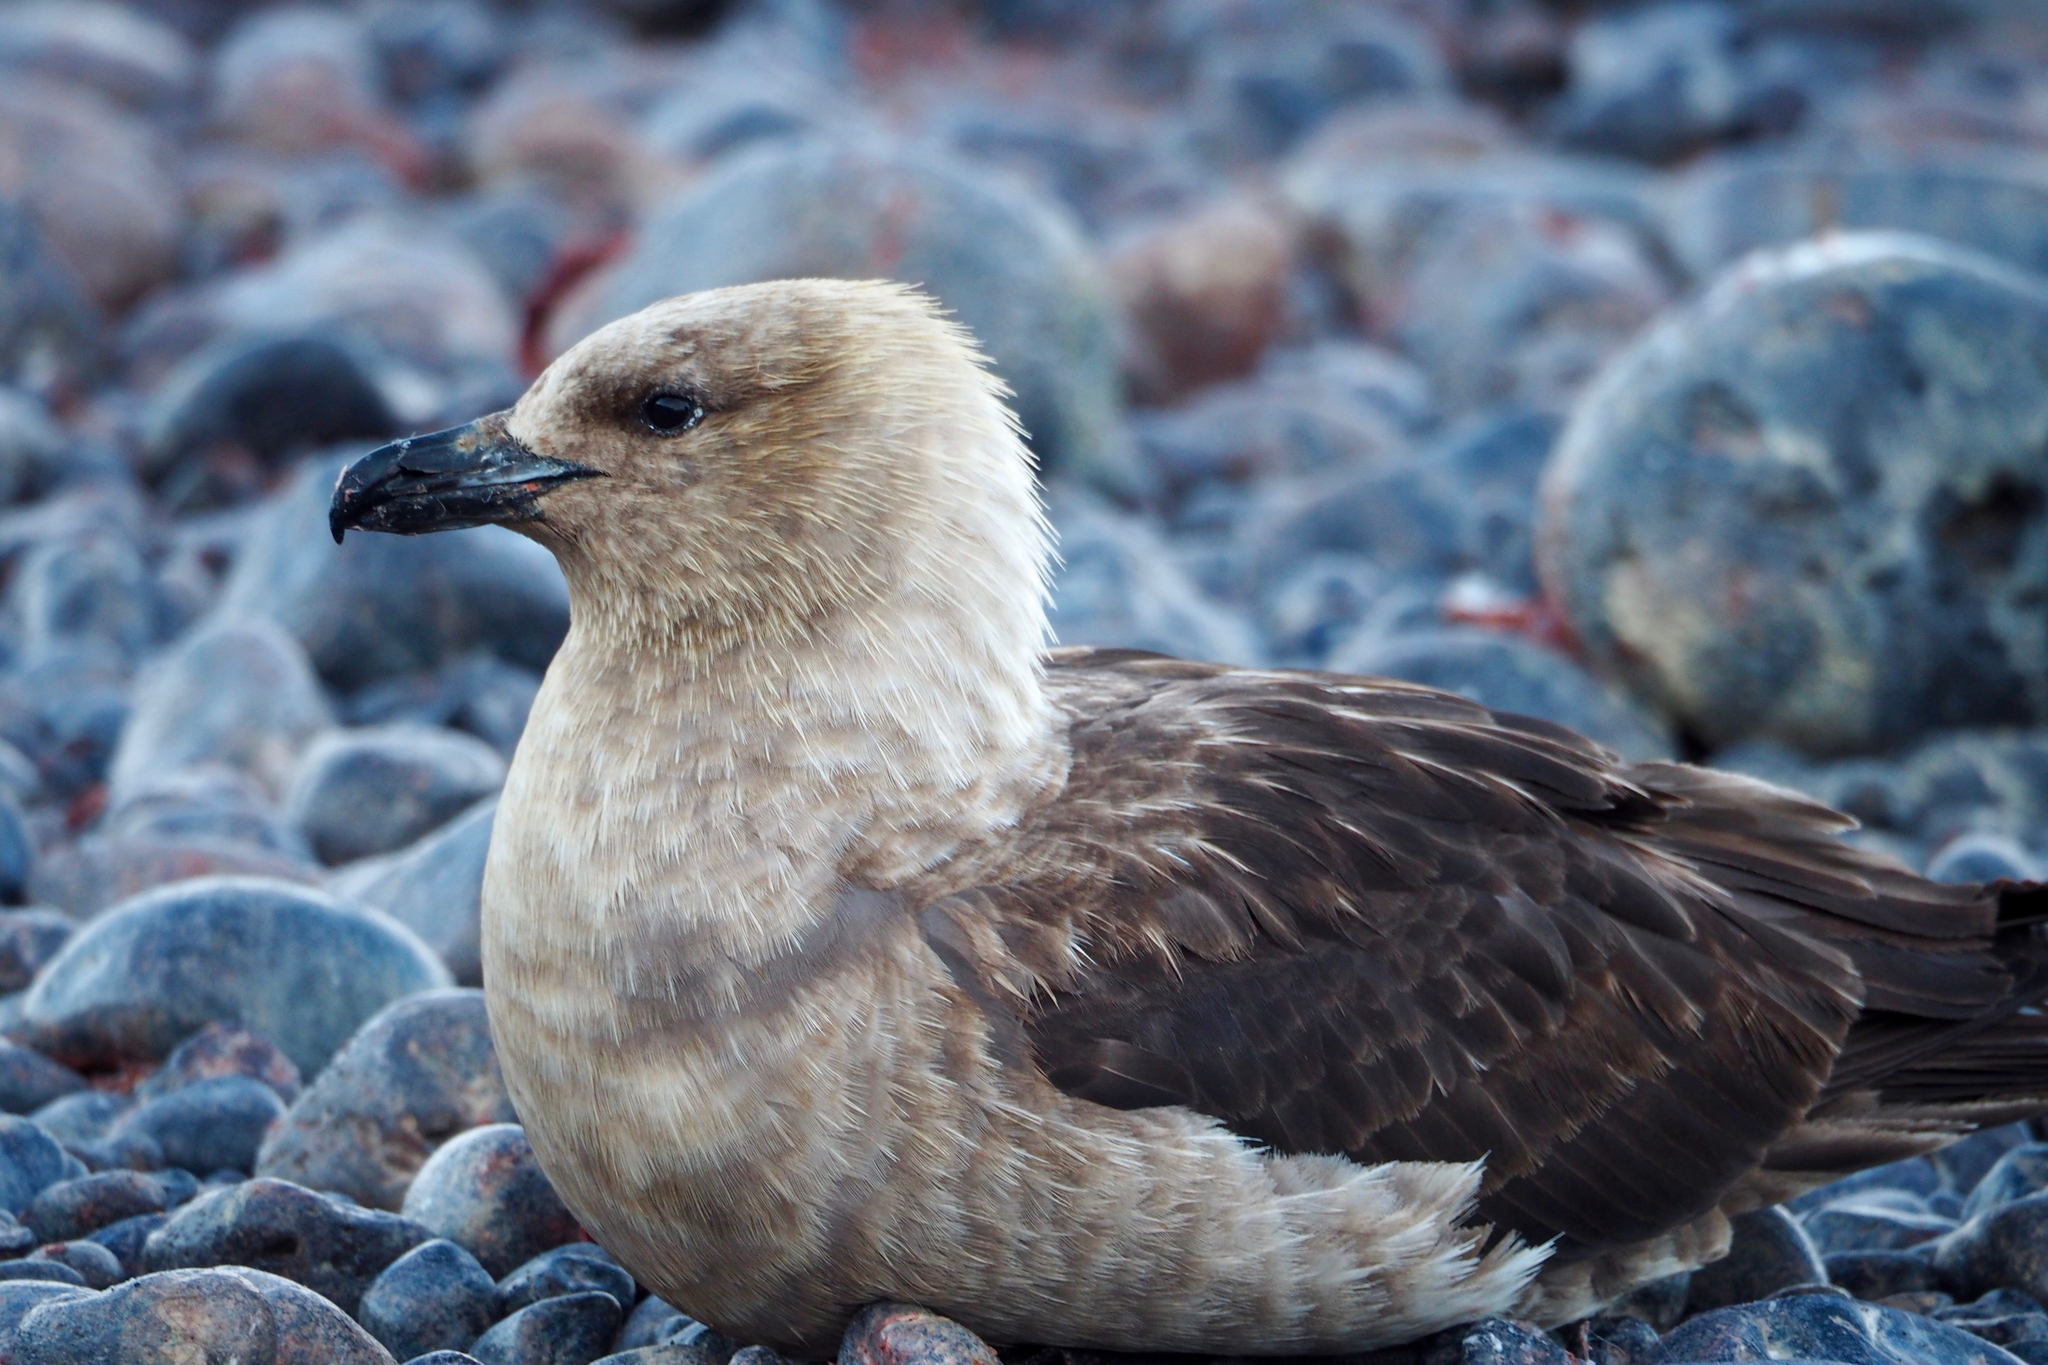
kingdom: Animalia
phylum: Chordata
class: Aves
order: Charadriiformes
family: Stercorariidae
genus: Stercorarius
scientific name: Stercorarius maccormicki
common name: South polar skua
